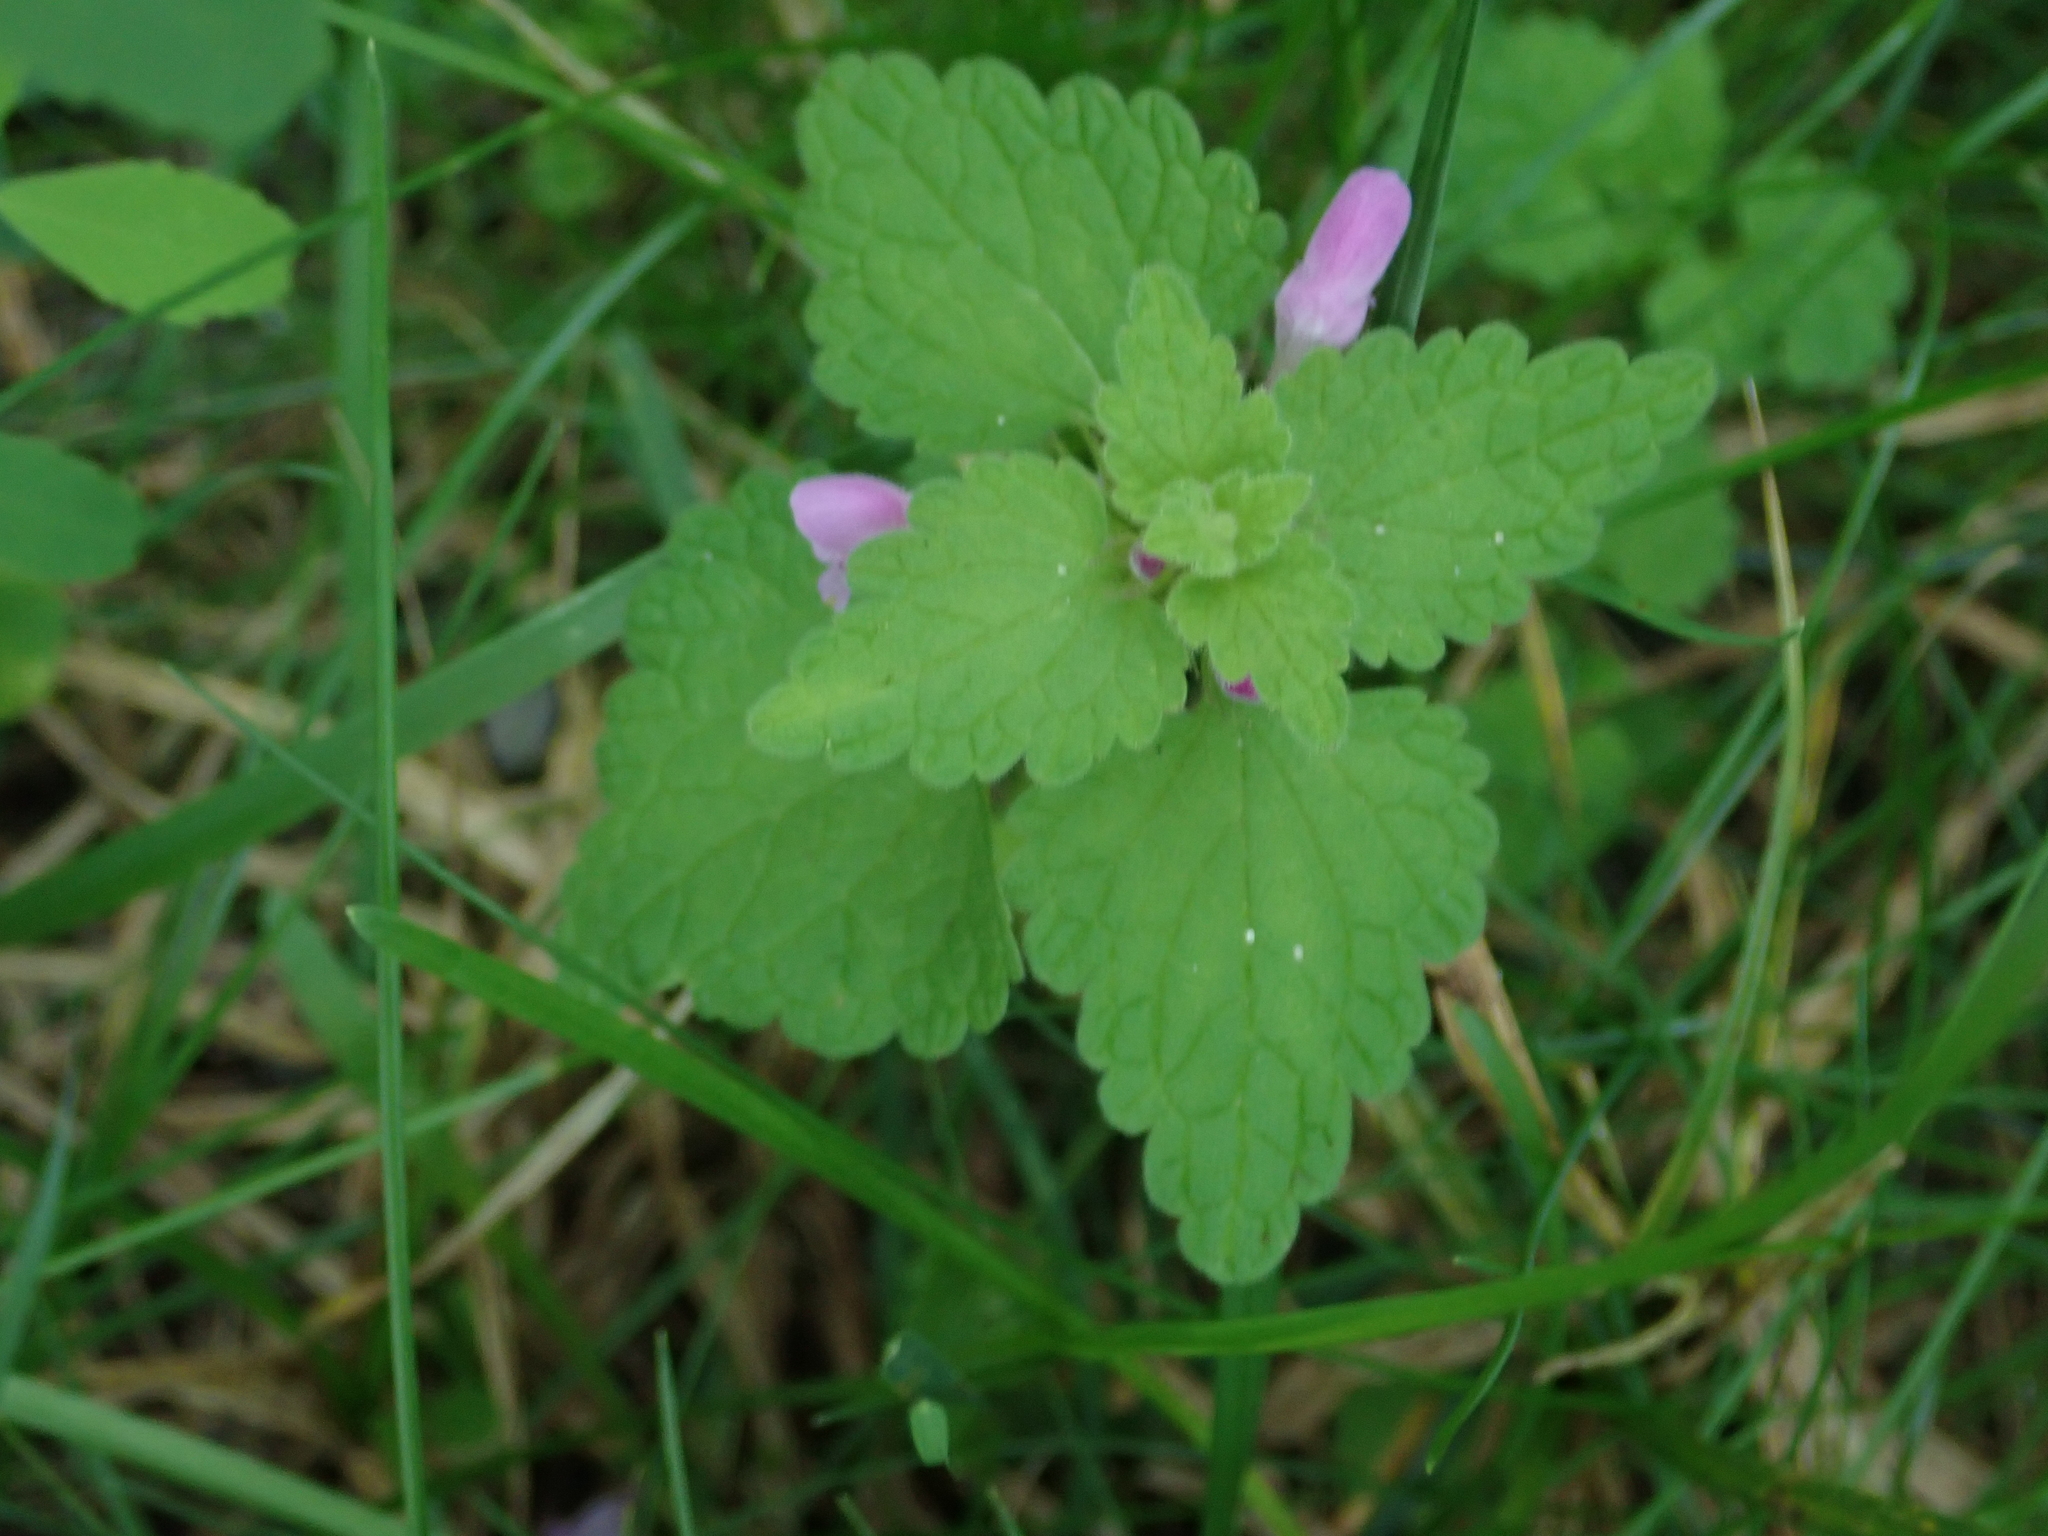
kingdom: Plantae
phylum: Tracheophyta
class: Magnoliopsida
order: Lamiales
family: Lamiaceae
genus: Lamium
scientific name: Lamium purpureum
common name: Red dead-nettle
